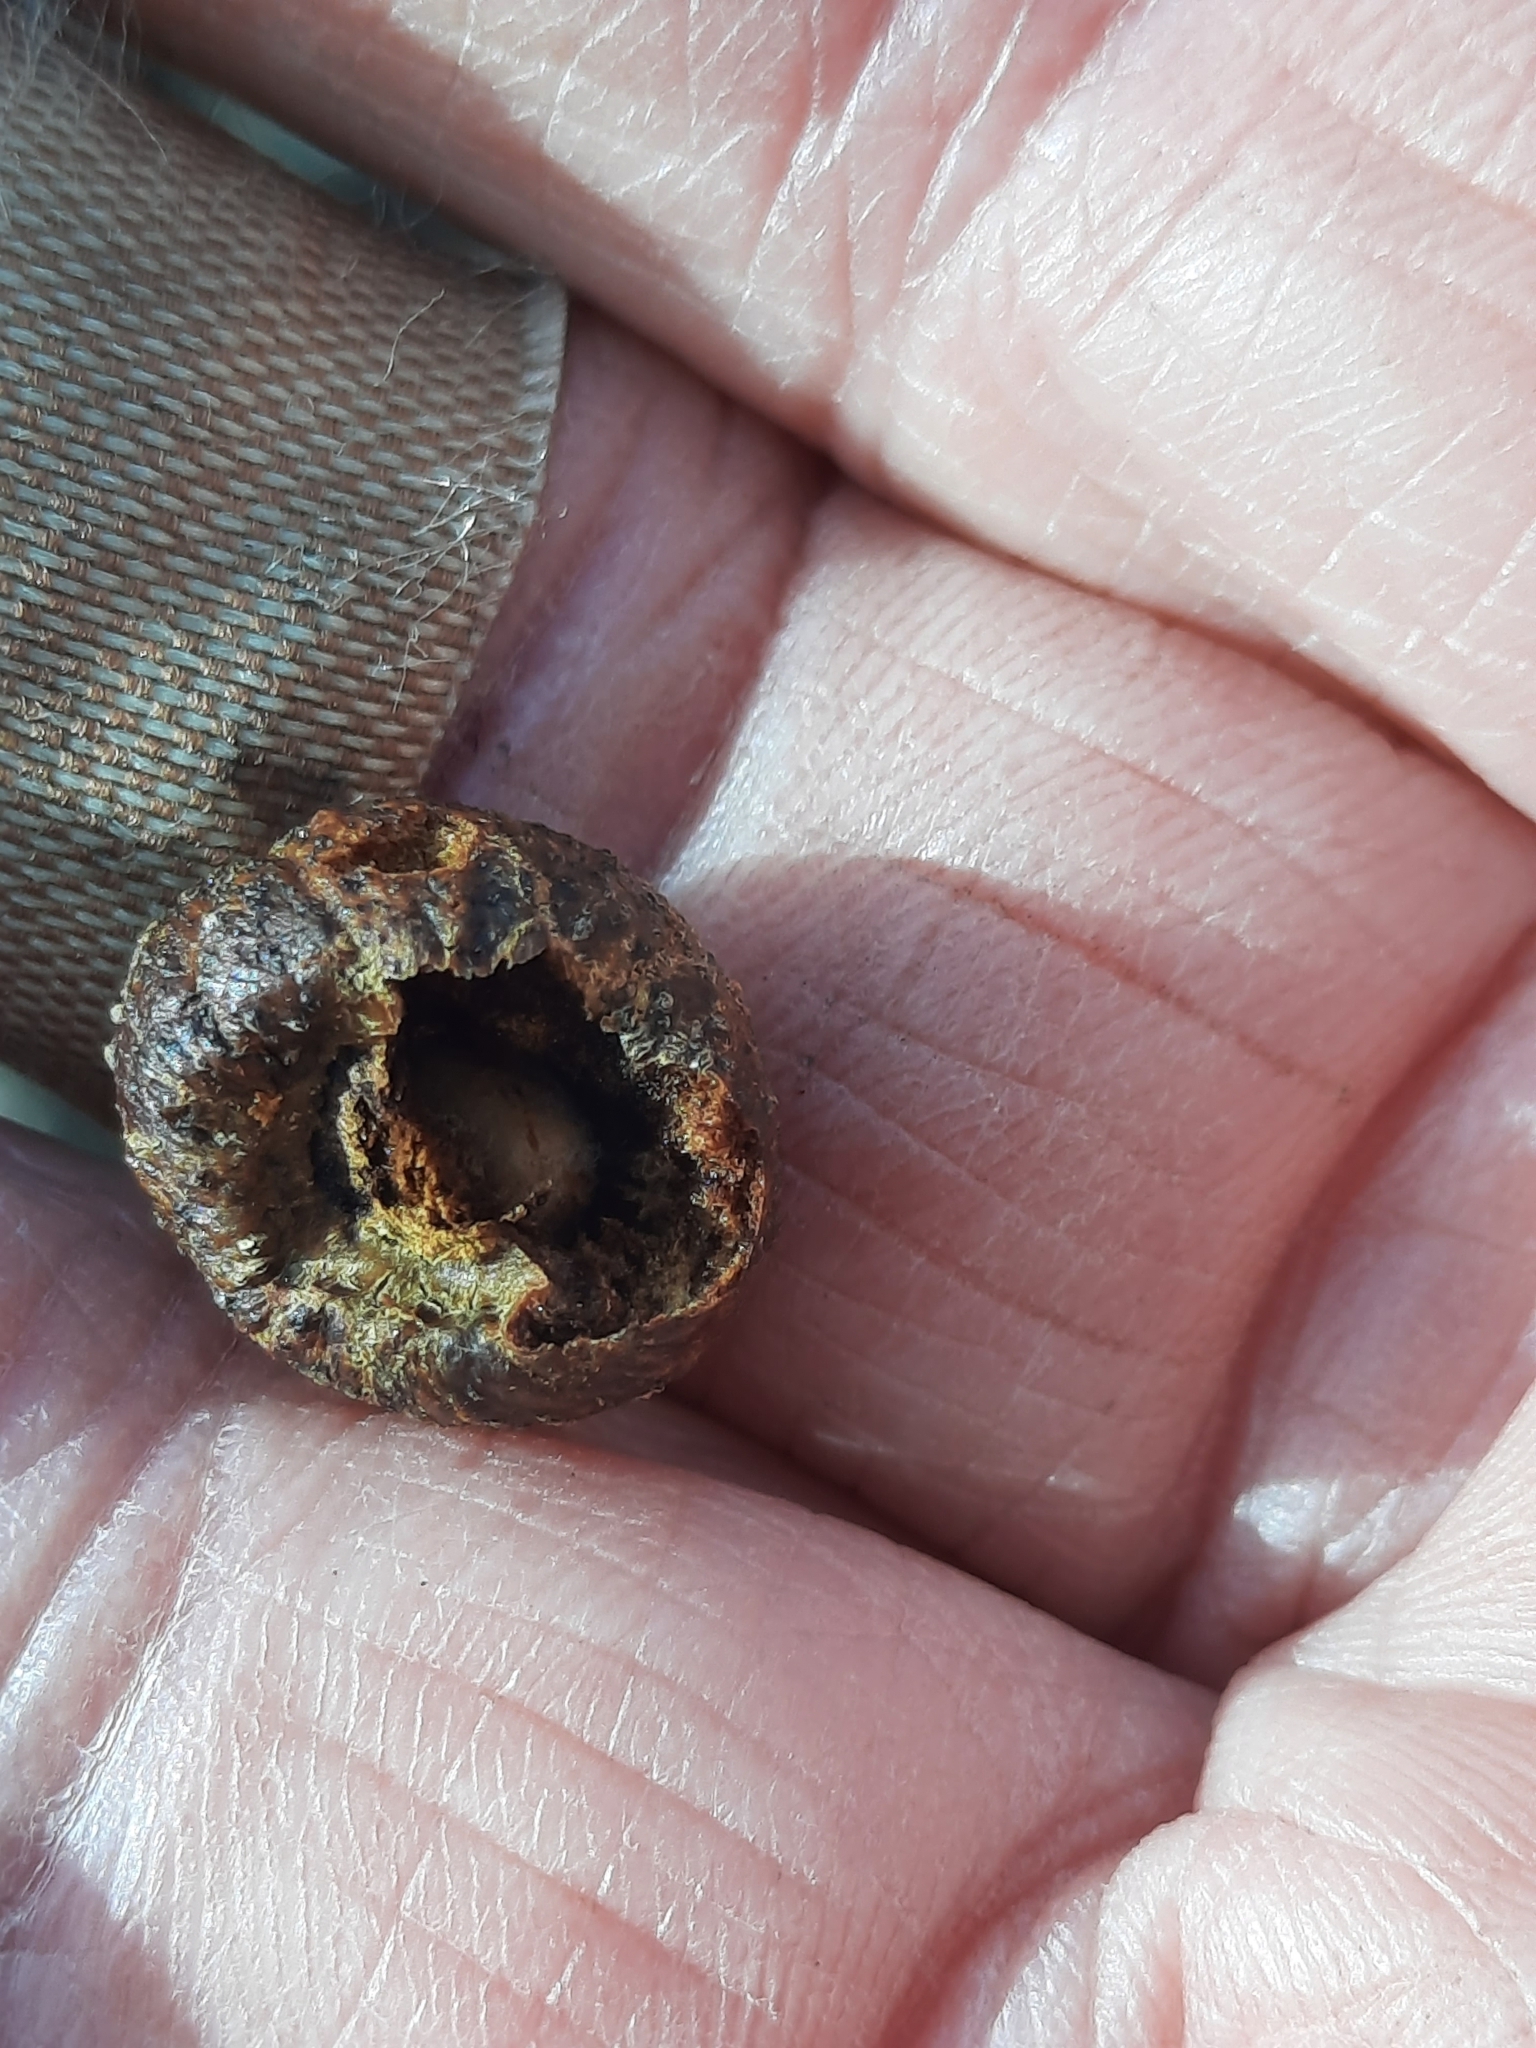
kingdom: Animalia
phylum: Arthropoda
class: Insecta
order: Hymenoptera
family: Cynipidae
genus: Disholcaspis
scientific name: Disholcaspis quercusglobulus
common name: Round bullet gall wasp
